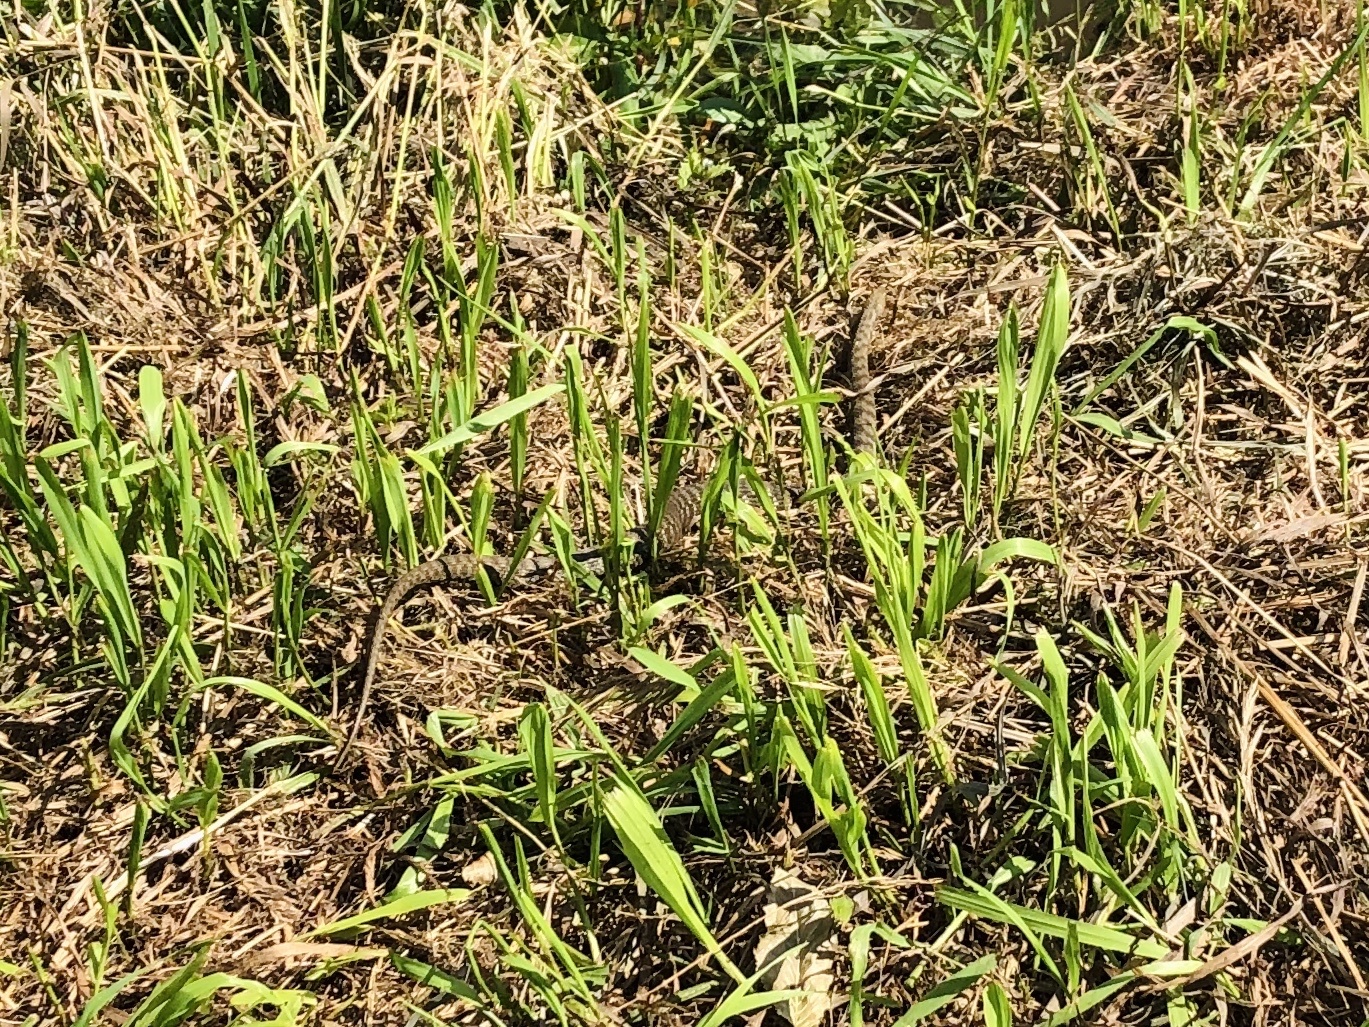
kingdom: Animalia
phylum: Chordata
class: Squamata
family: Colubridae
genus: Natrix
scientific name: Natrix tessellata
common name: Dice snake
